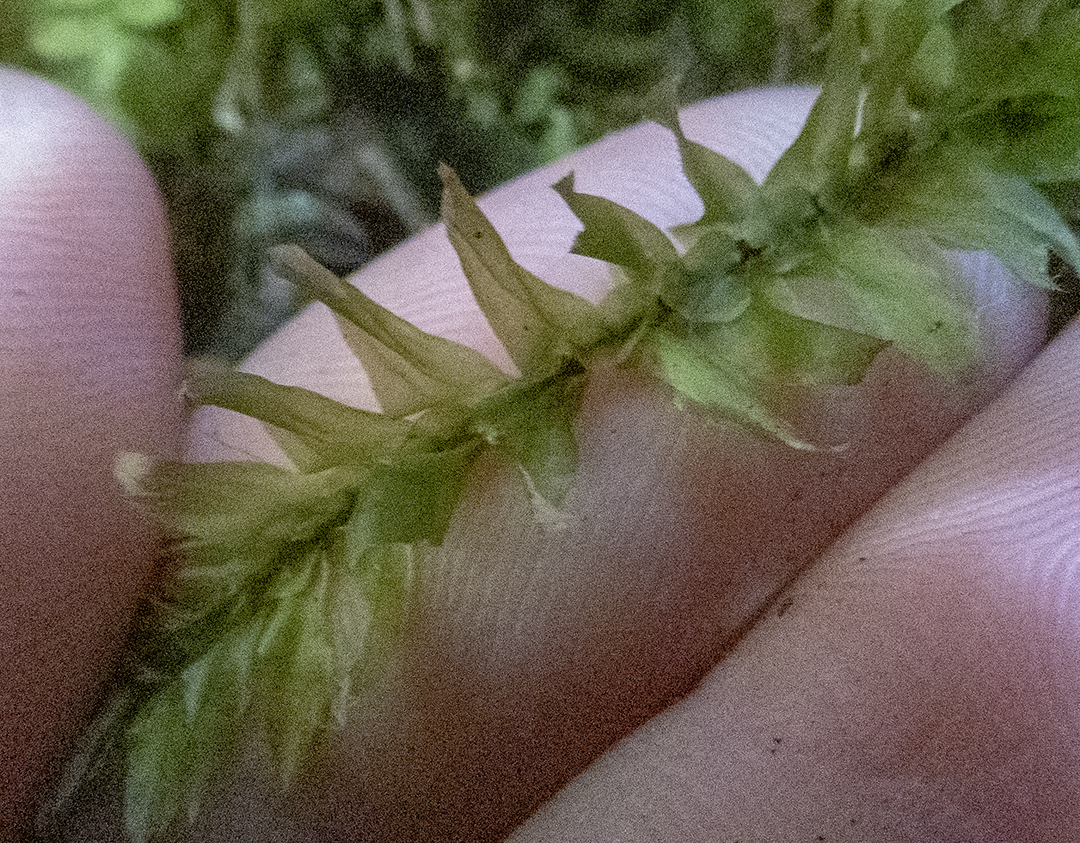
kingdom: Plantae
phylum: Bryophyta
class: Bryopsida
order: Hypopterygiales
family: Hypopterygiaceae
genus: Cyathophorum
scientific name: Cyathophorum bulbosum
